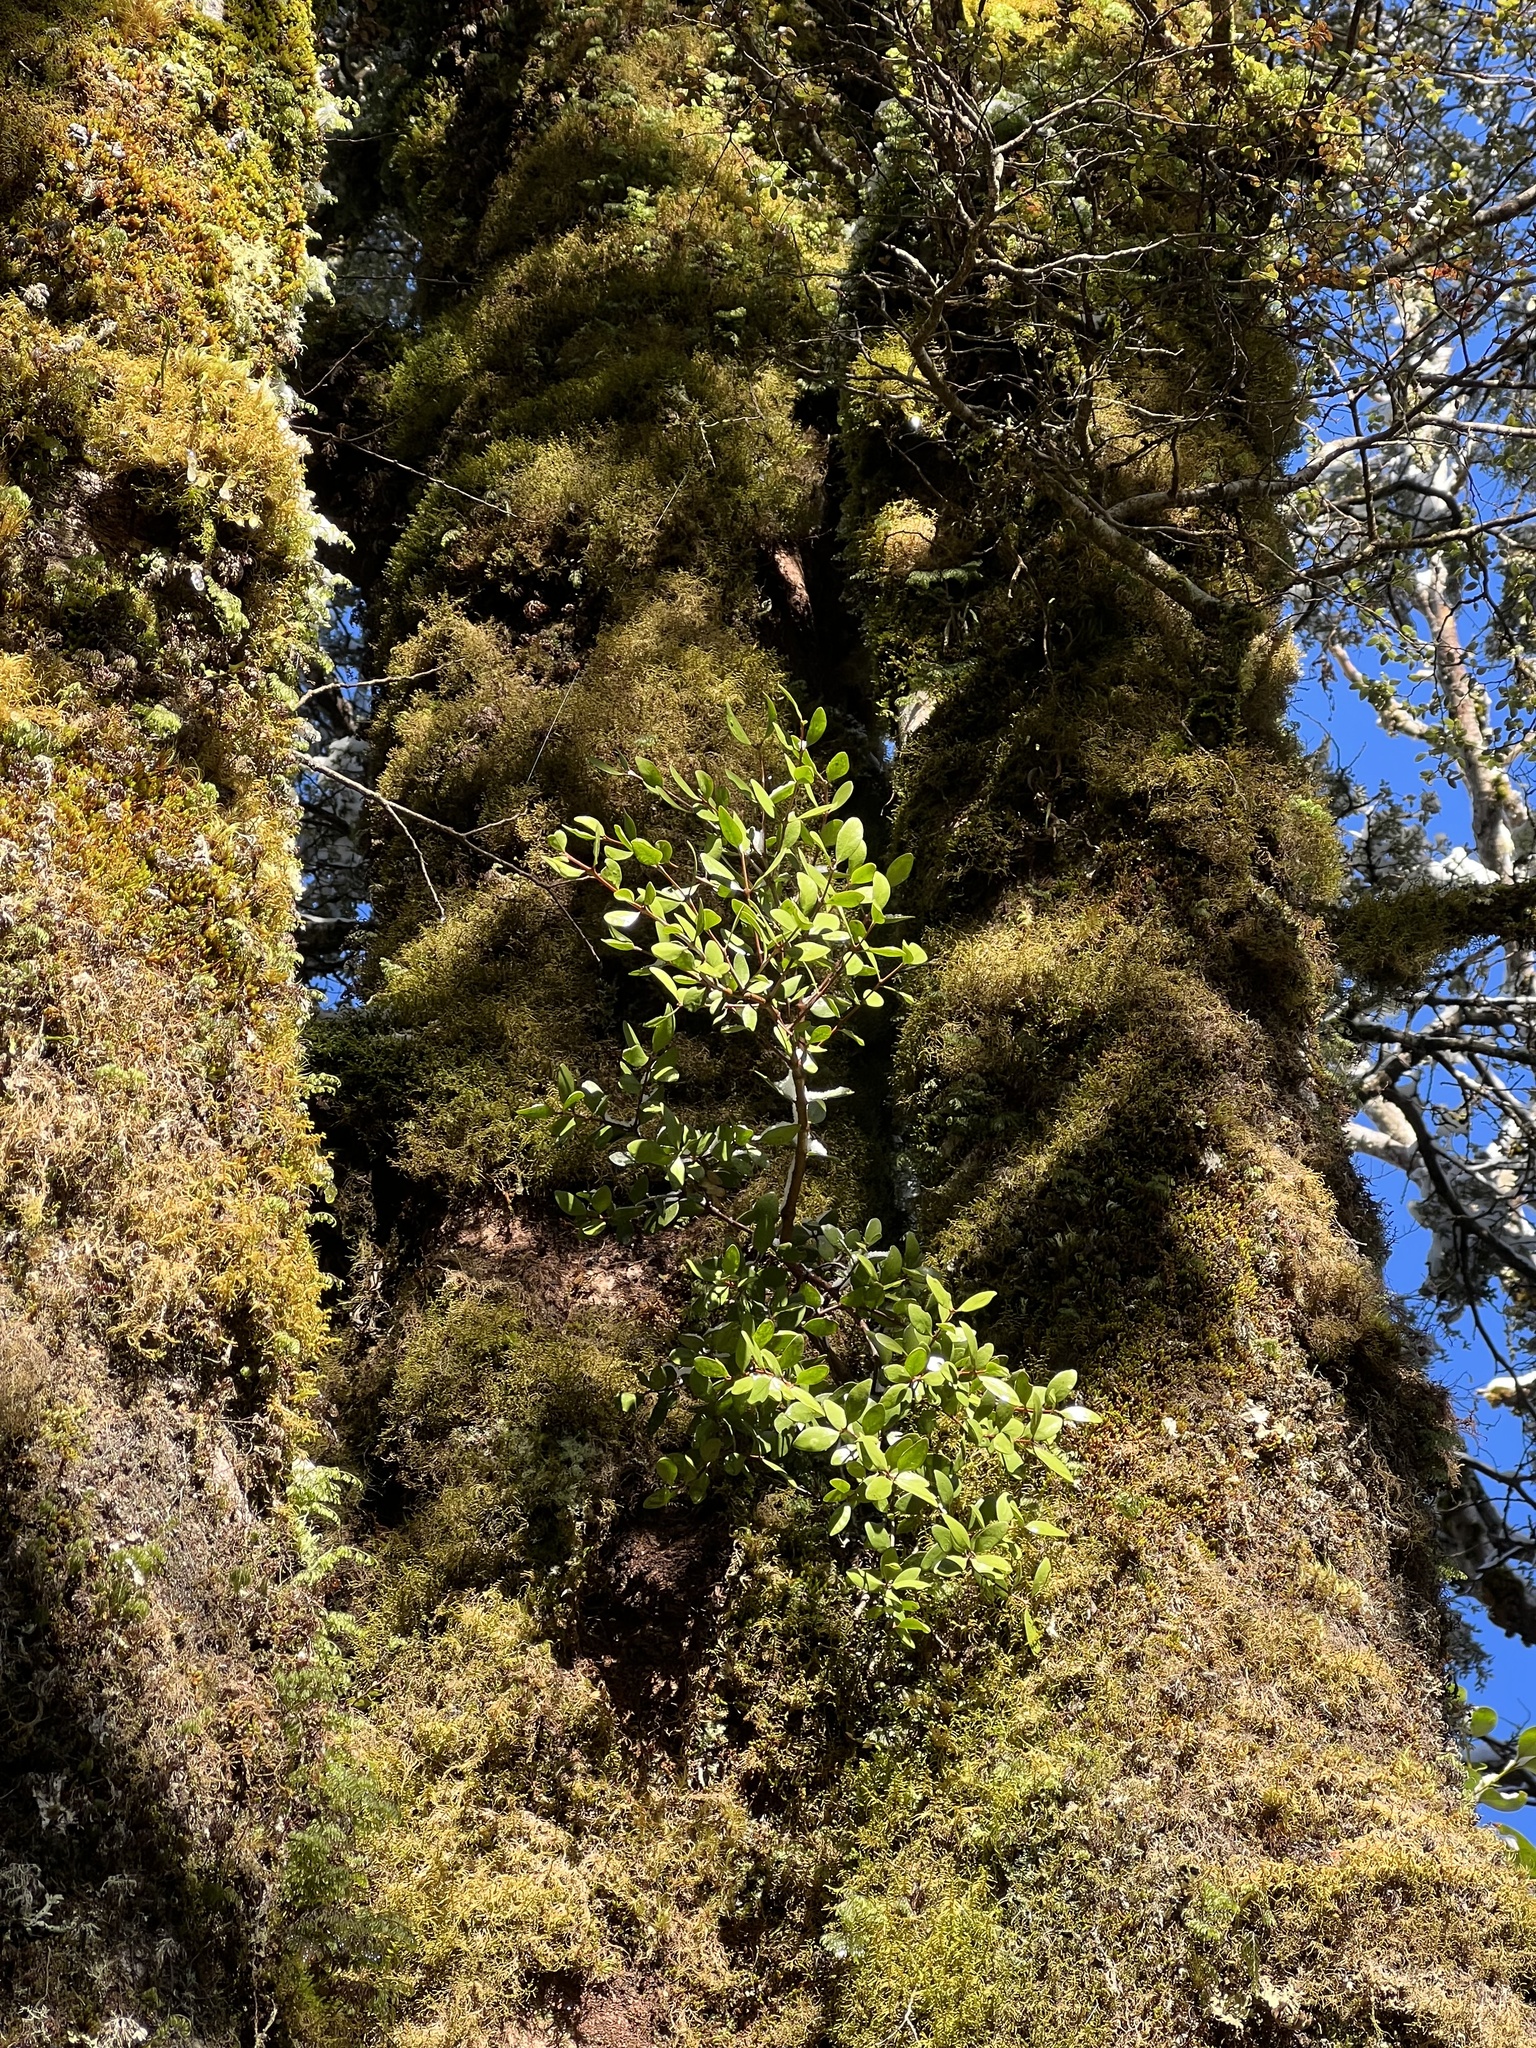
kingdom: Plantae
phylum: Tracheophyta
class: Magnoliopsida
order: Santalales
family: Loranthaceae
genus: Peraxilla
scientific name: Peraxilla tetrapetala
